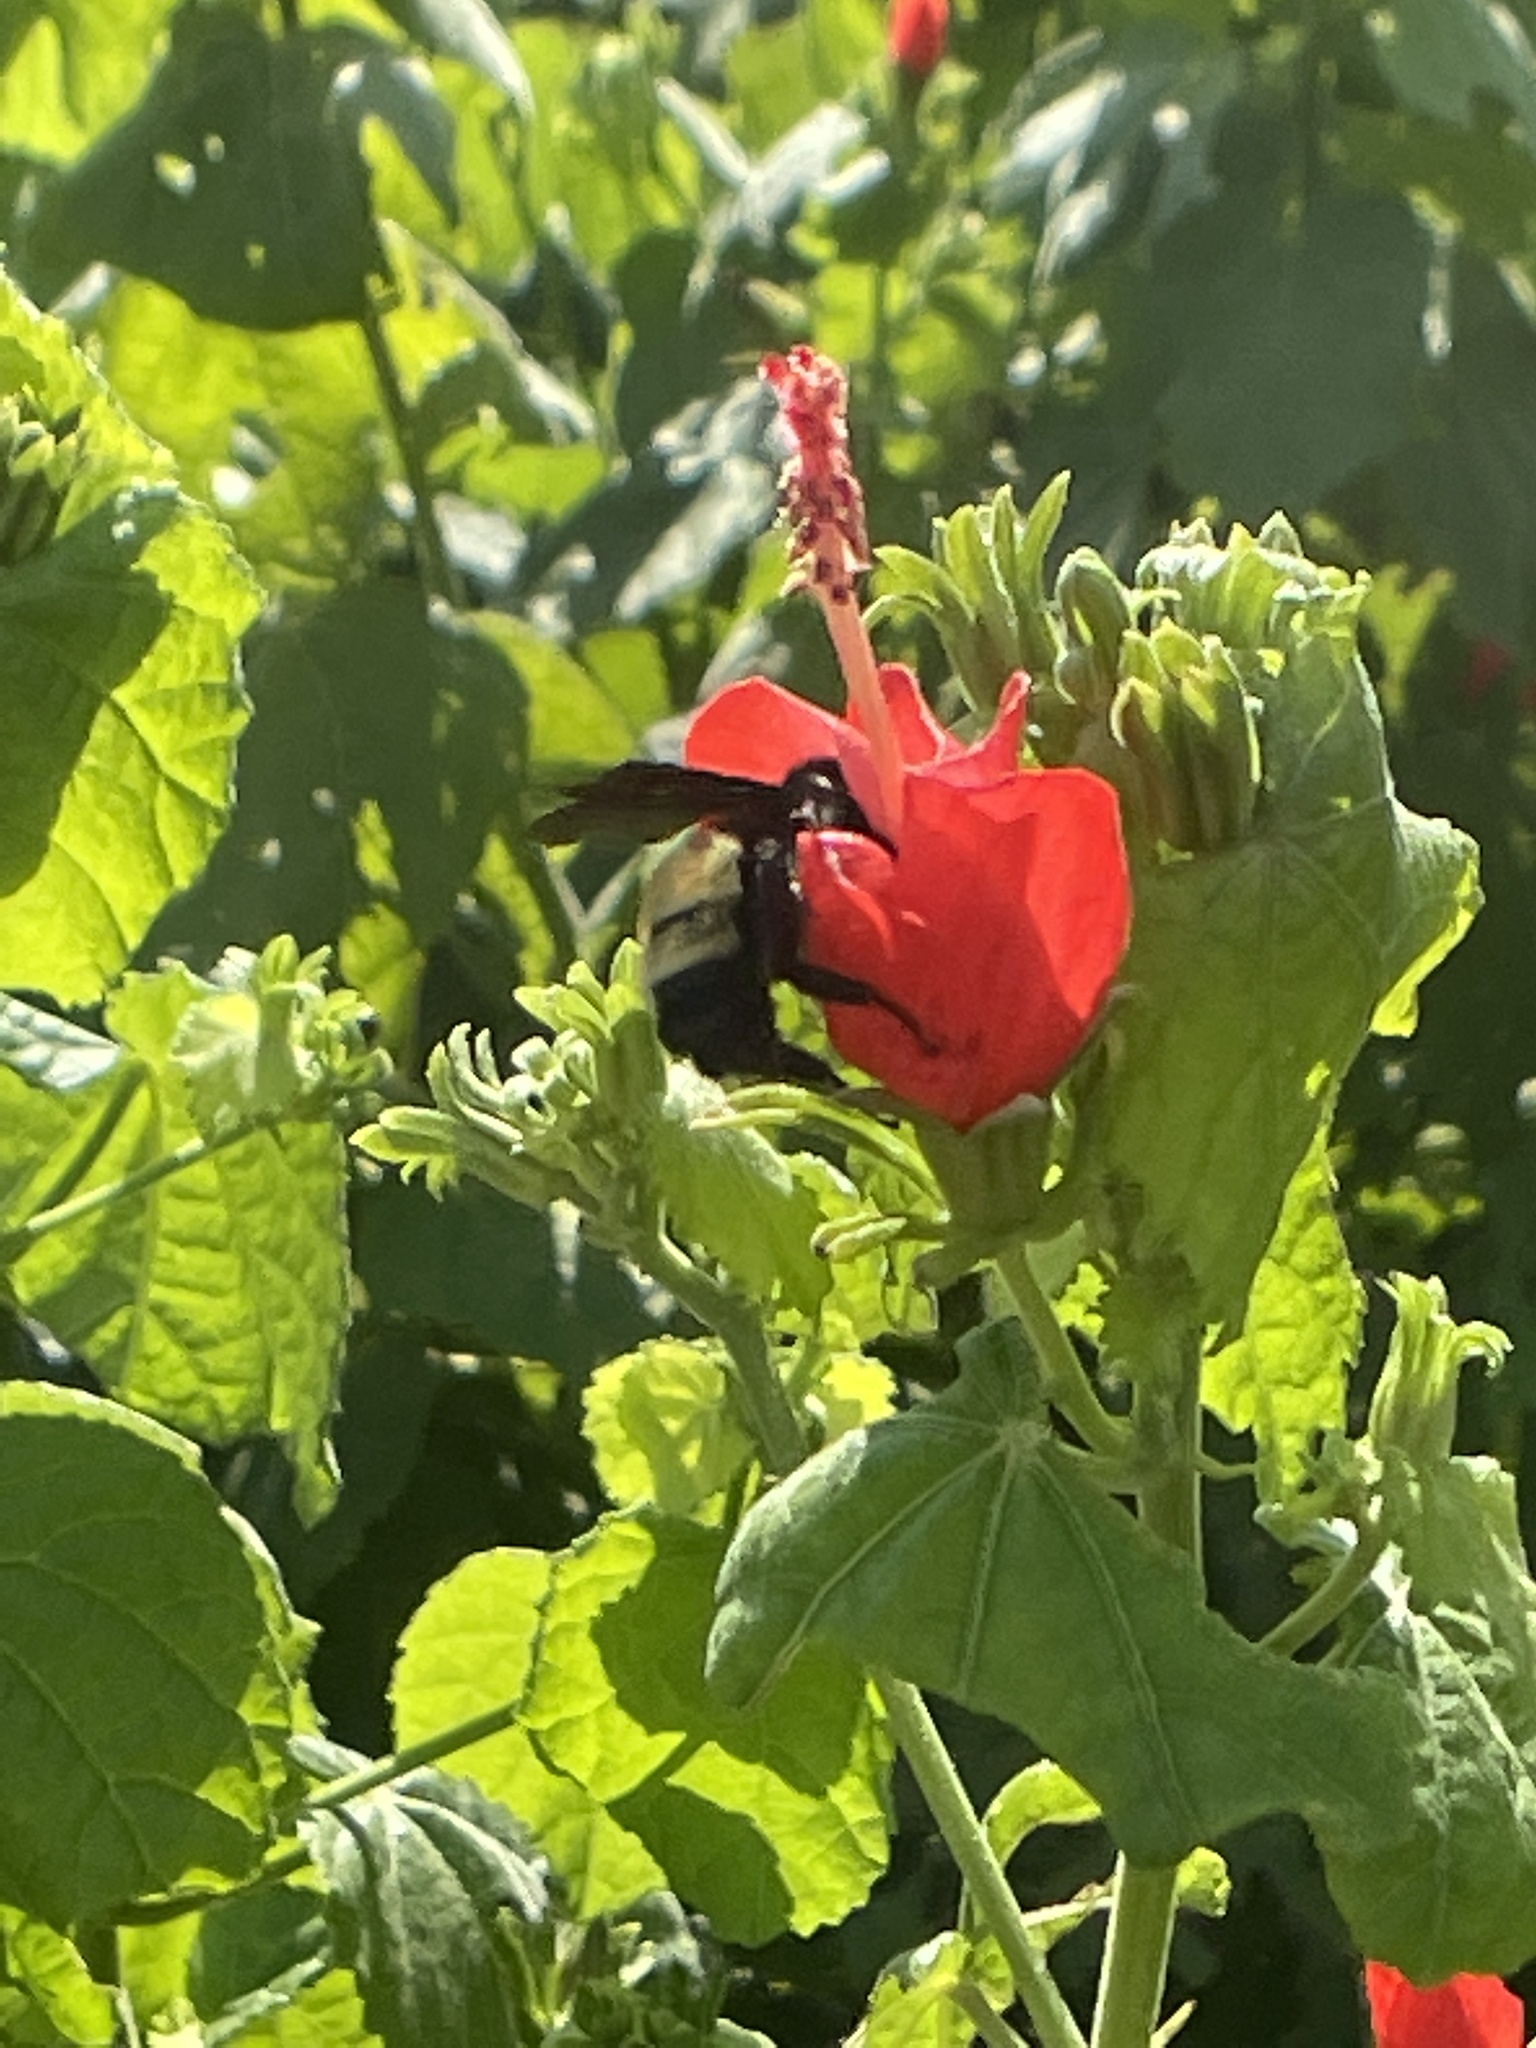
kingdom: Animalia
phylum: Arthropoda
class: Insecta
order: Hymenoptera
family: Apidae
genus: Bombus
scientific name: Bombus pensylvanicus
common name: Bumble bee
